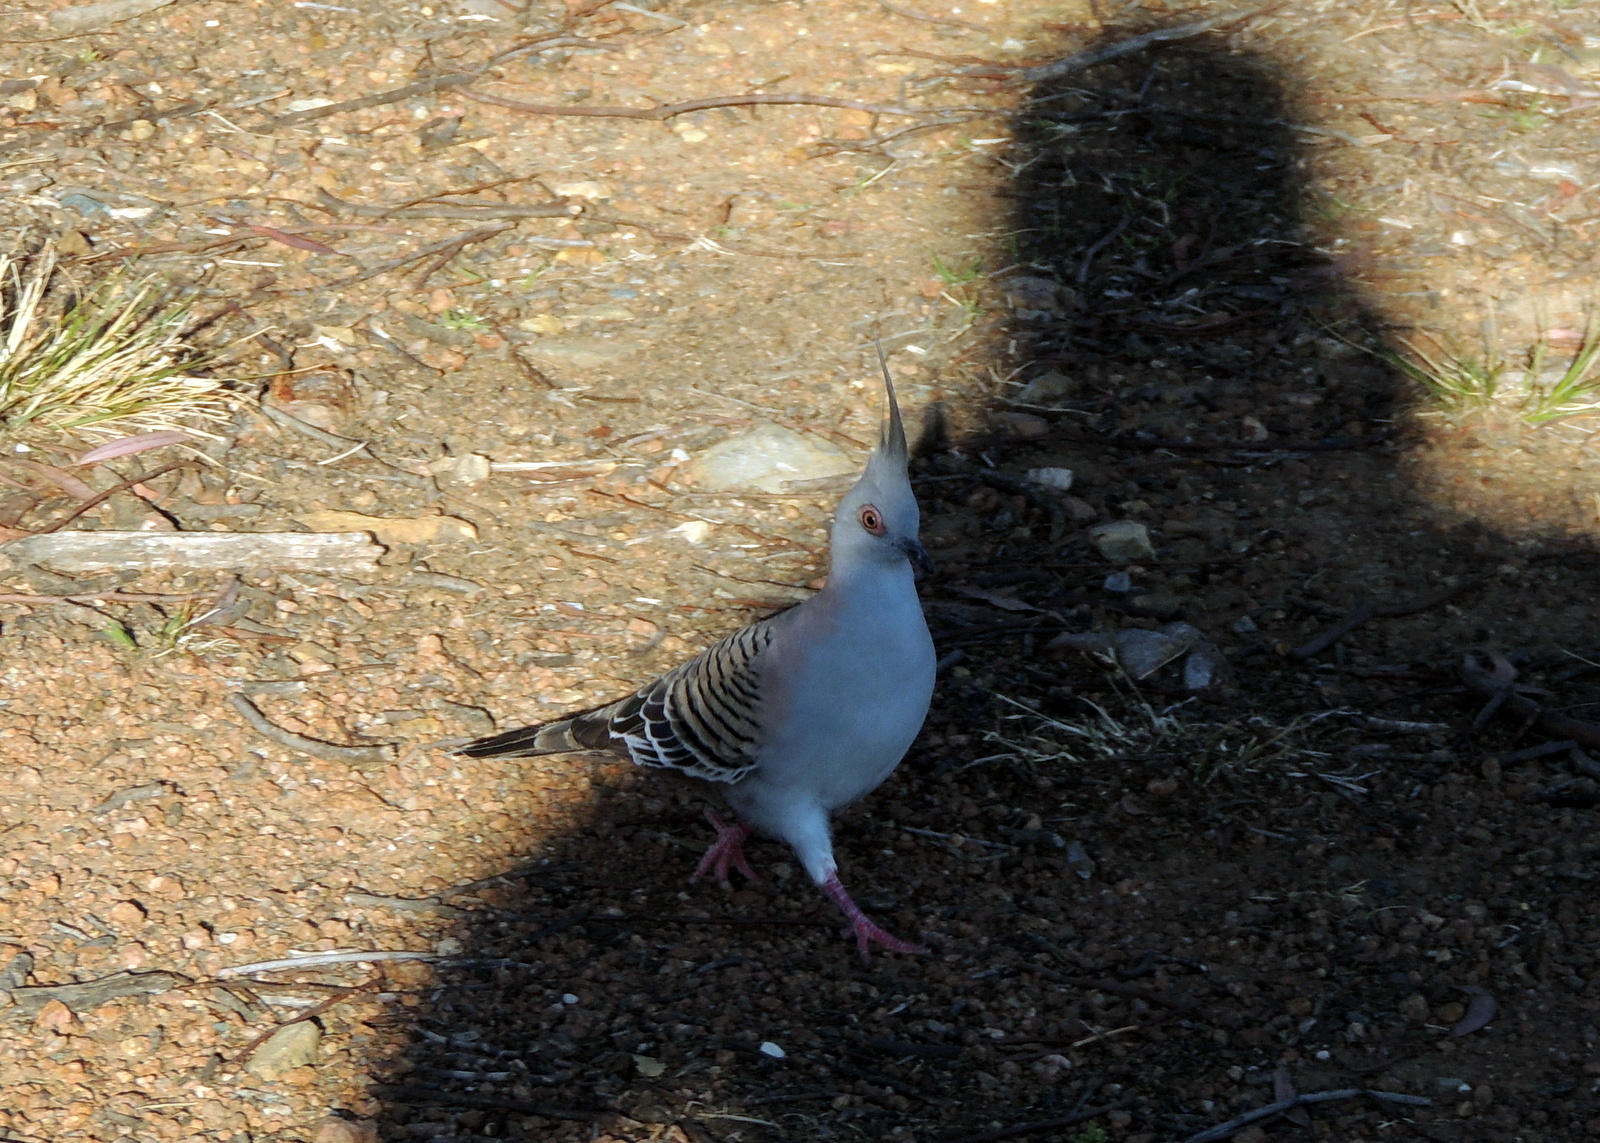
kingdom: Animalia
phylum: Chordata
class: Aves
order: Columbiformes
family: Columbidae
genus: Ocyphaps
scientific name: Ocyphaps lophotes
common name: Crested pigeon
